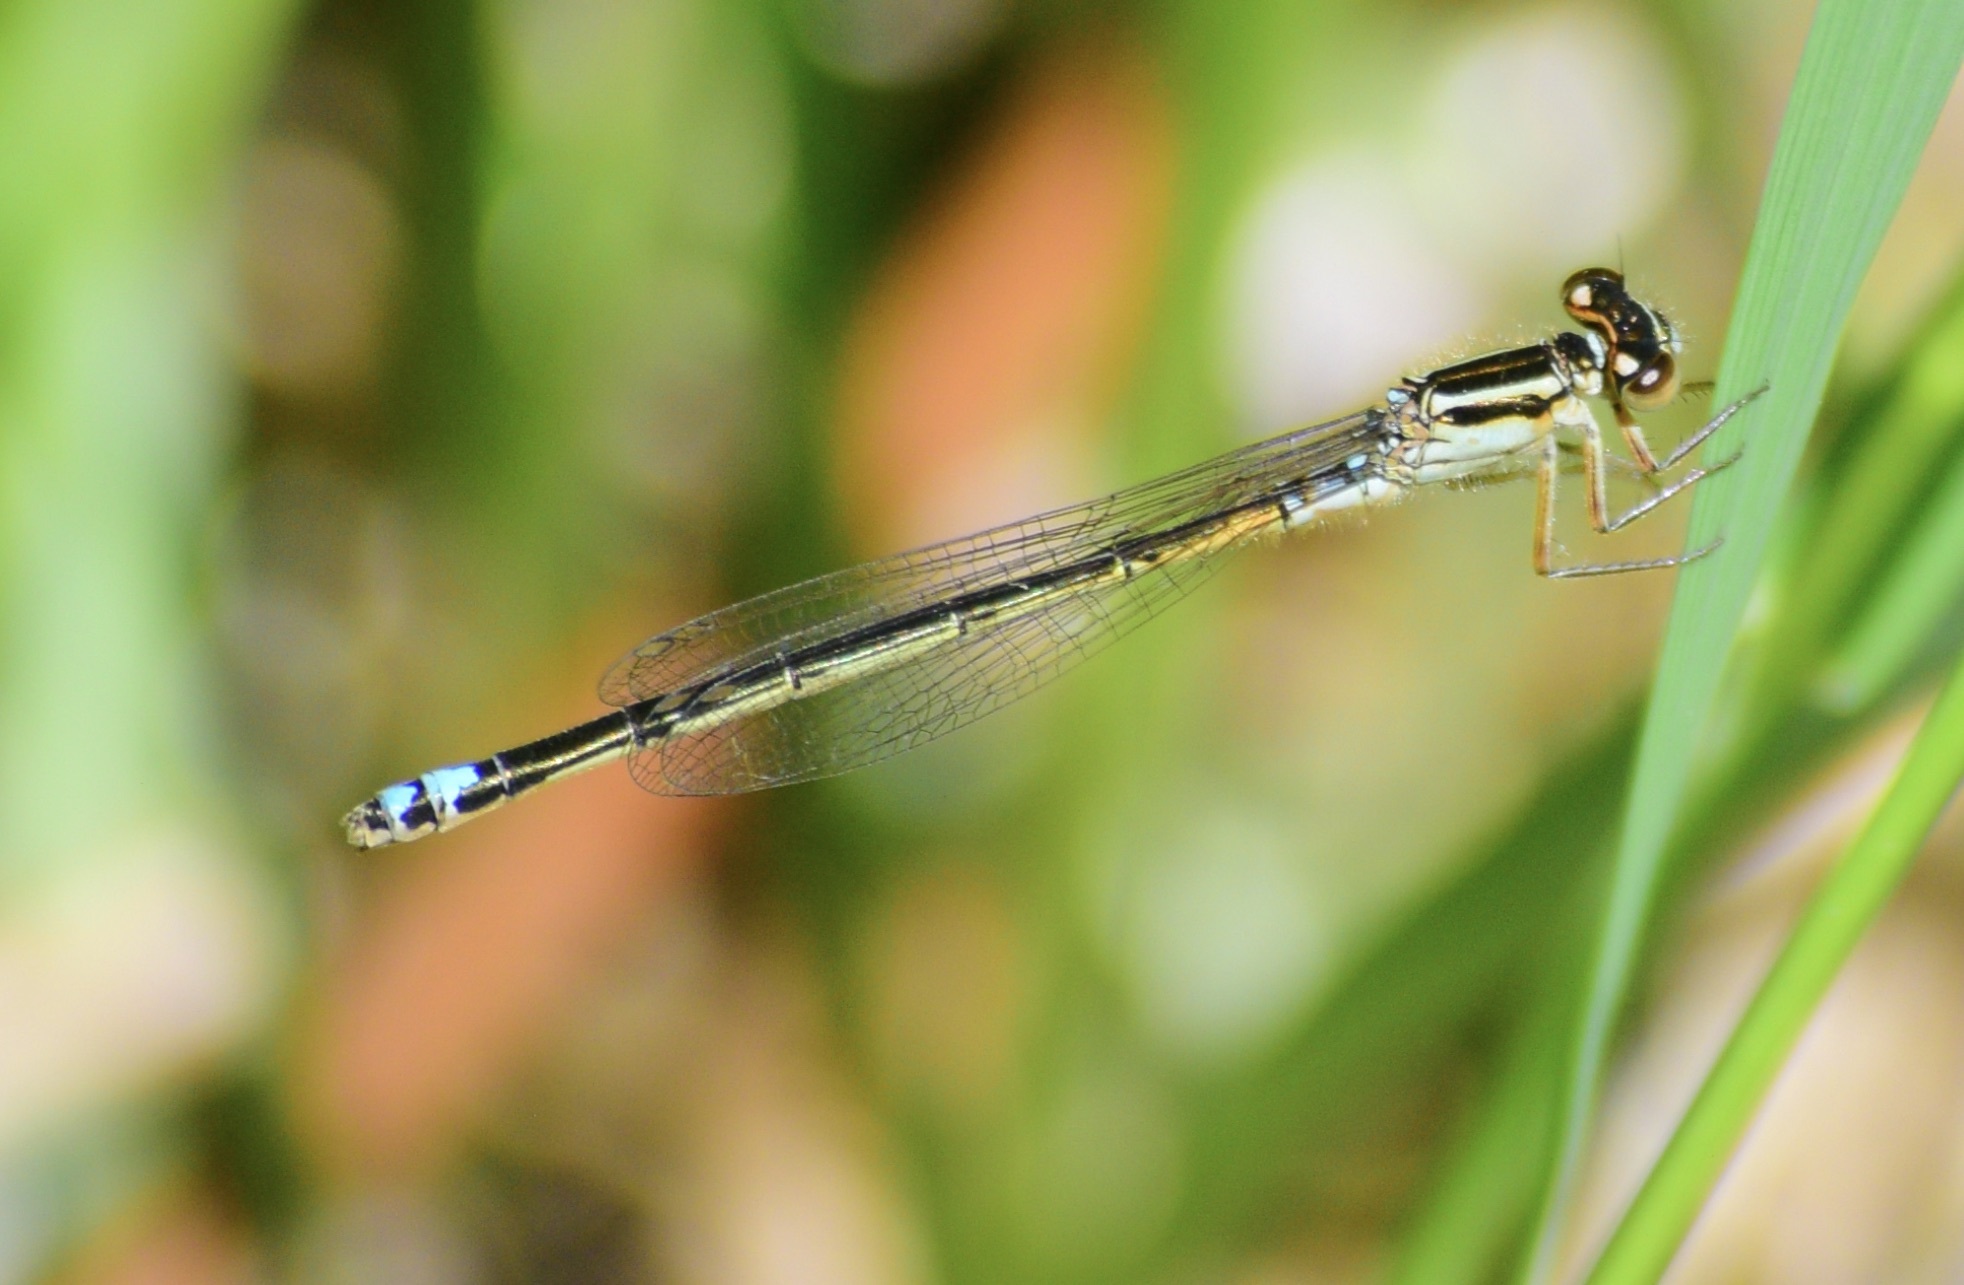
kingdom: Animalia
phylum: Arthropoda
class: Insecta
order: Odonata
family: Coenagrionidae
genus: Ischnura
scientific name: Ischnura verticalis
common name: Eastern forktail
